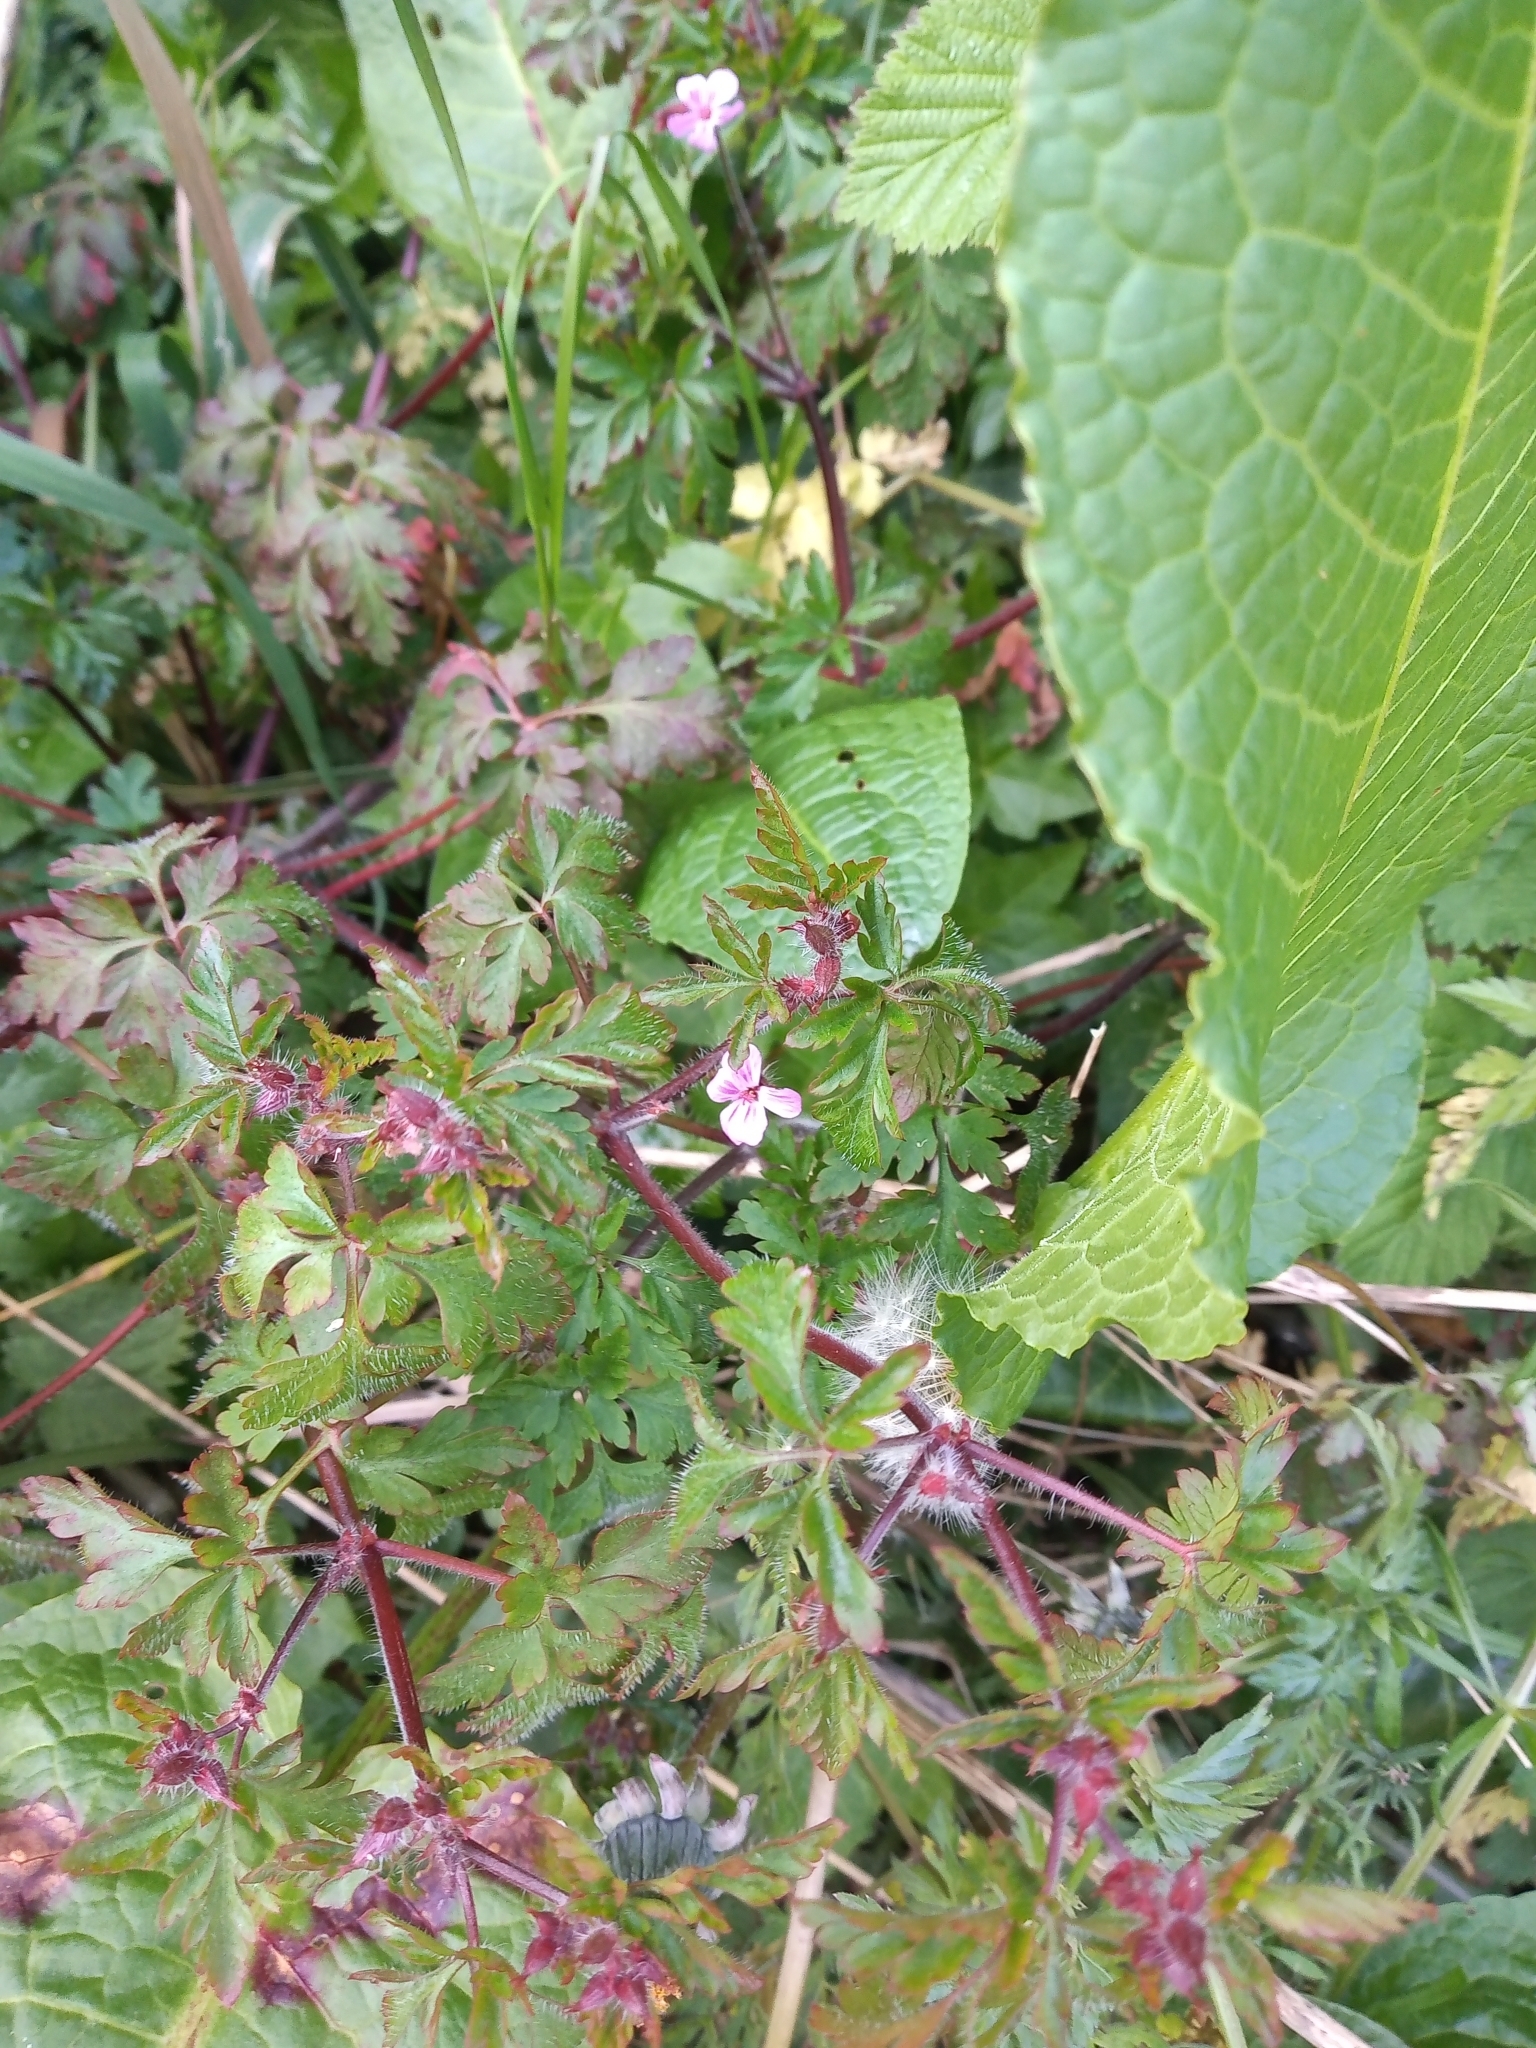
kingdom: Plantae
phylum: Tracheophyta
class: Magnoliopsida
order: Geraniales
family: Geraniaceae
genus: Geranium
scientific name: Geranium robertianum
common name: Herb-robert
